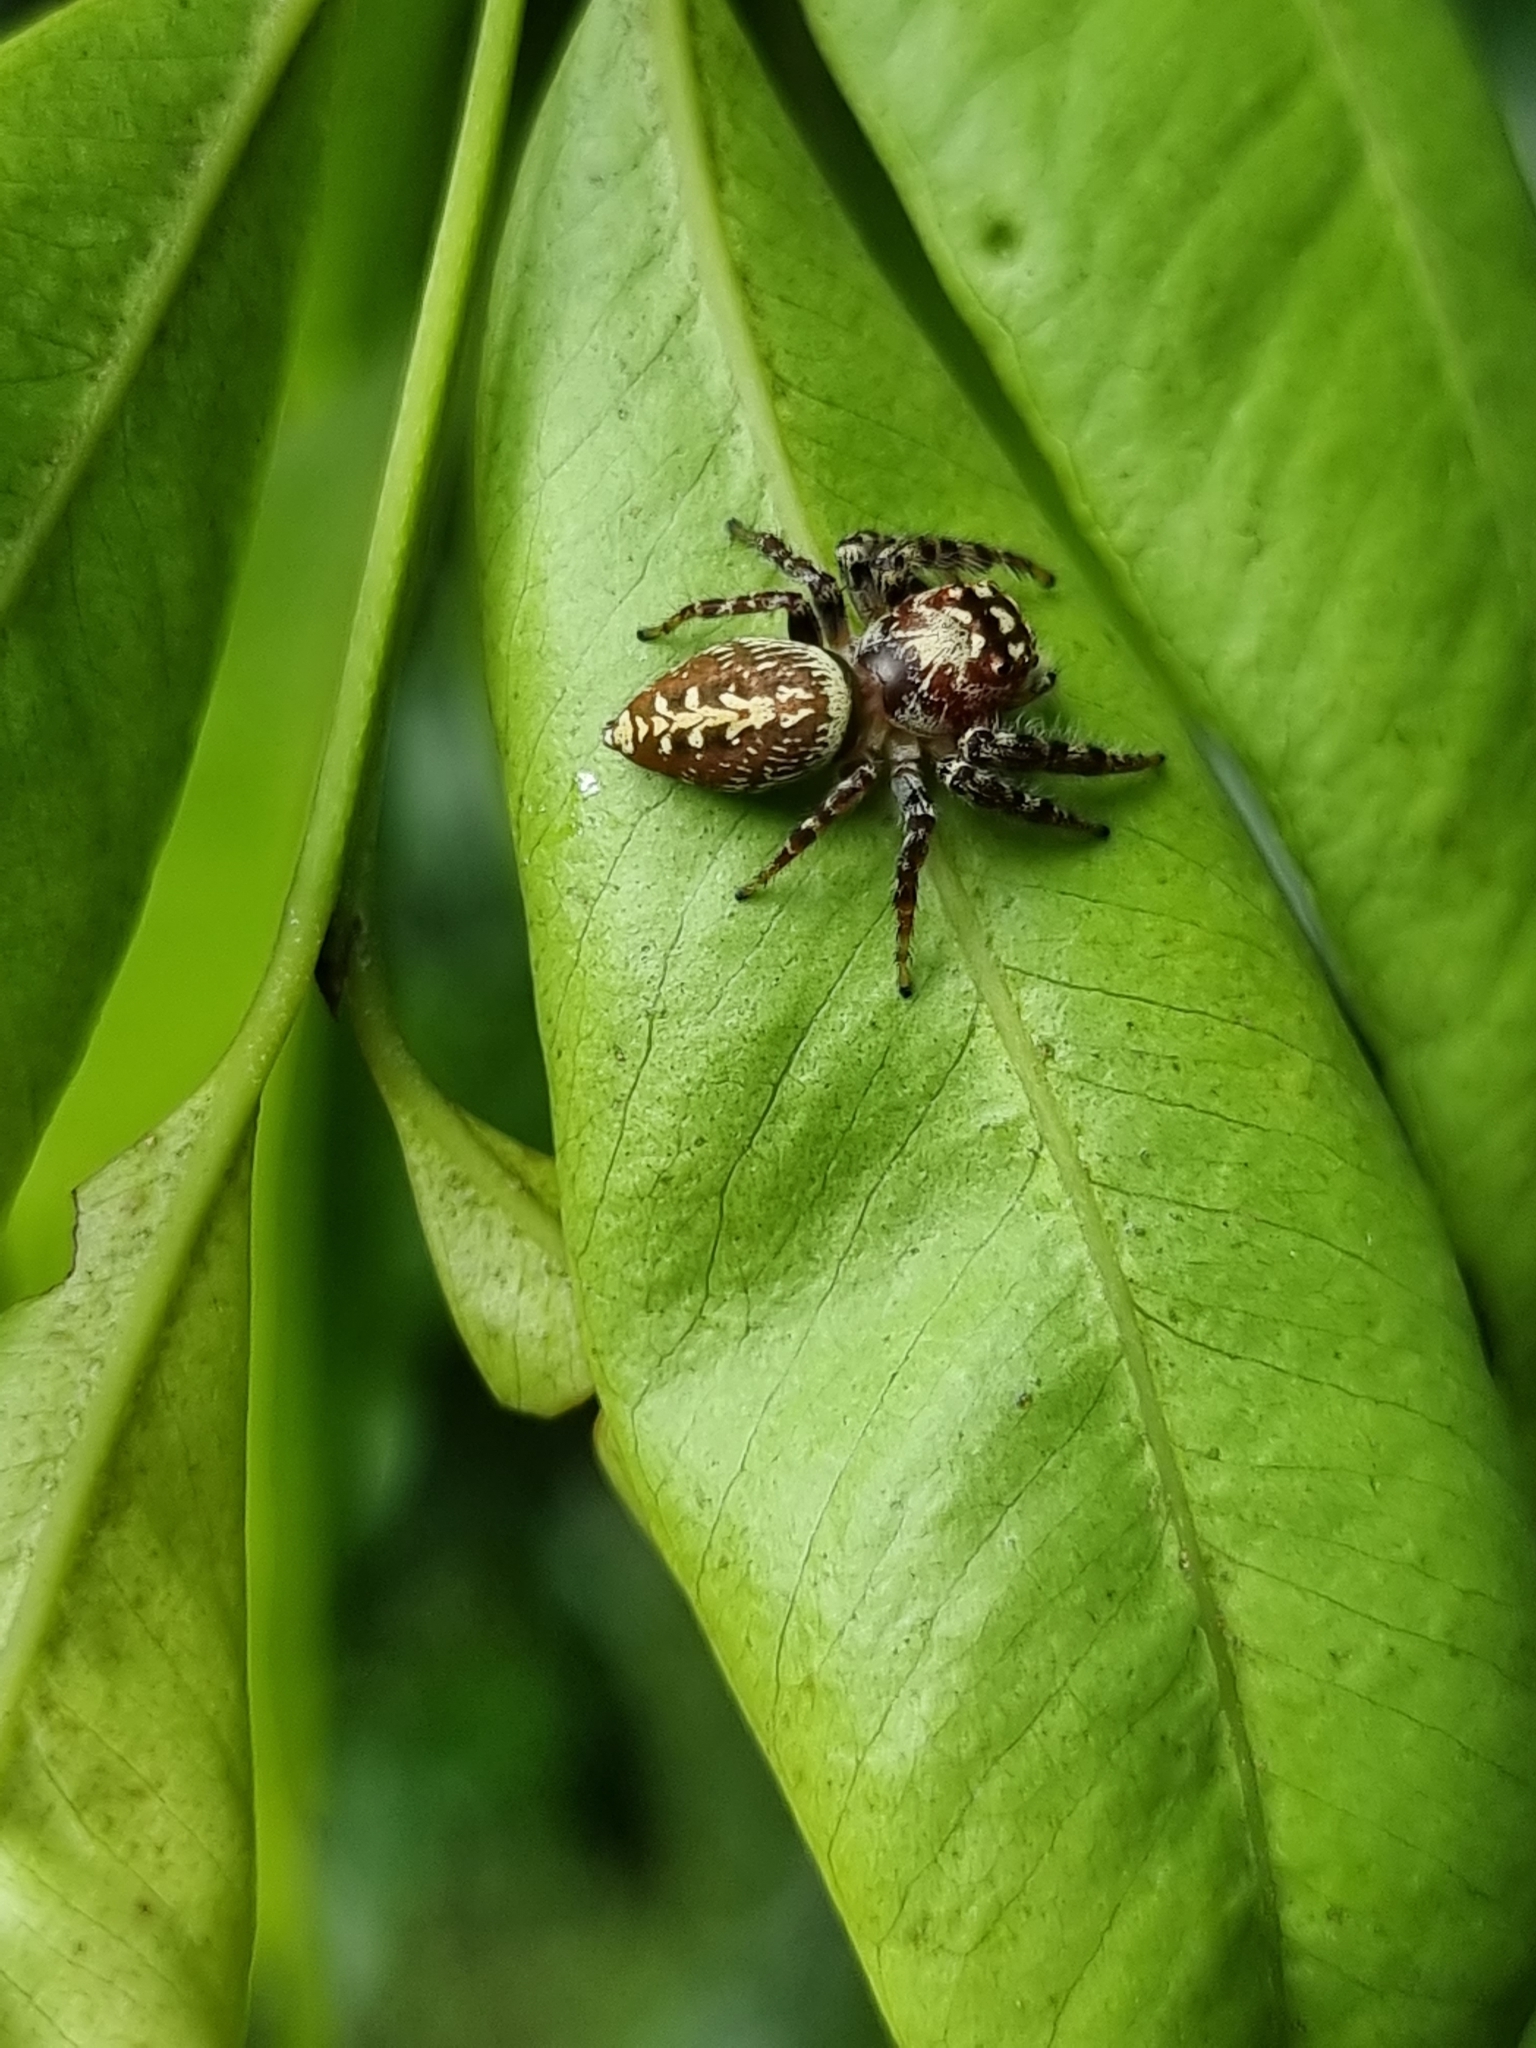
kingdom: Animalia
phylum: Arthropoda
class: Arachnida
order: Araneae
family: Salticidae
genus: Opisthoncus
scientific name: Opisthoncus quadratarius
